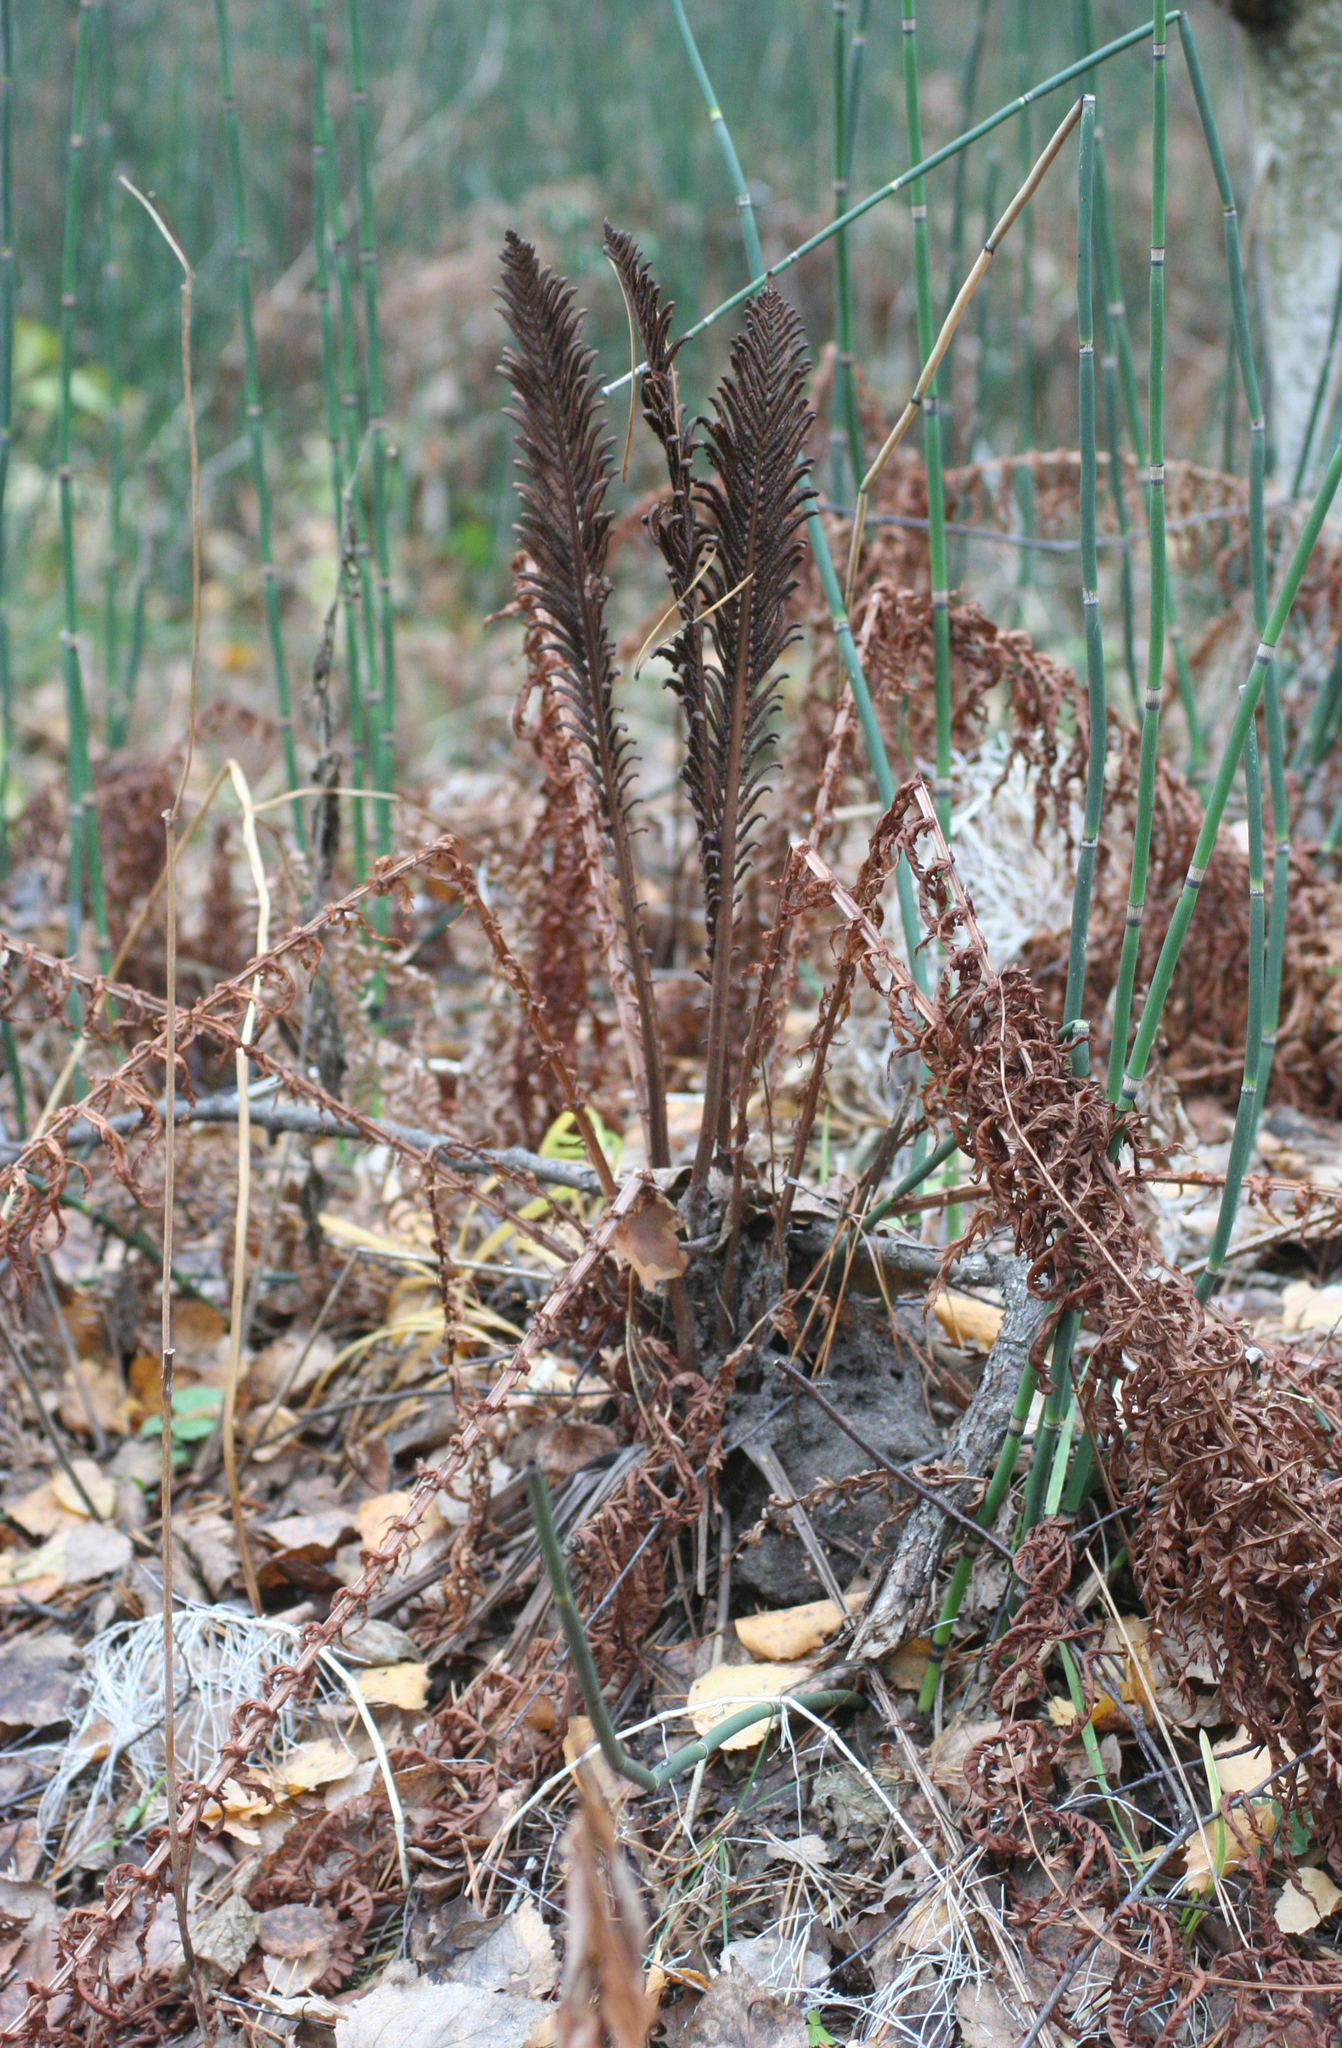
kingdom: Plantae
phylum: Tracheophyta
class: Polypodiopsida
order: Polypodiales
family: Onocleaceae
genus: Matteuccia
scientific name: Matteuccia struthiopteris
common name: Ostrich fern
